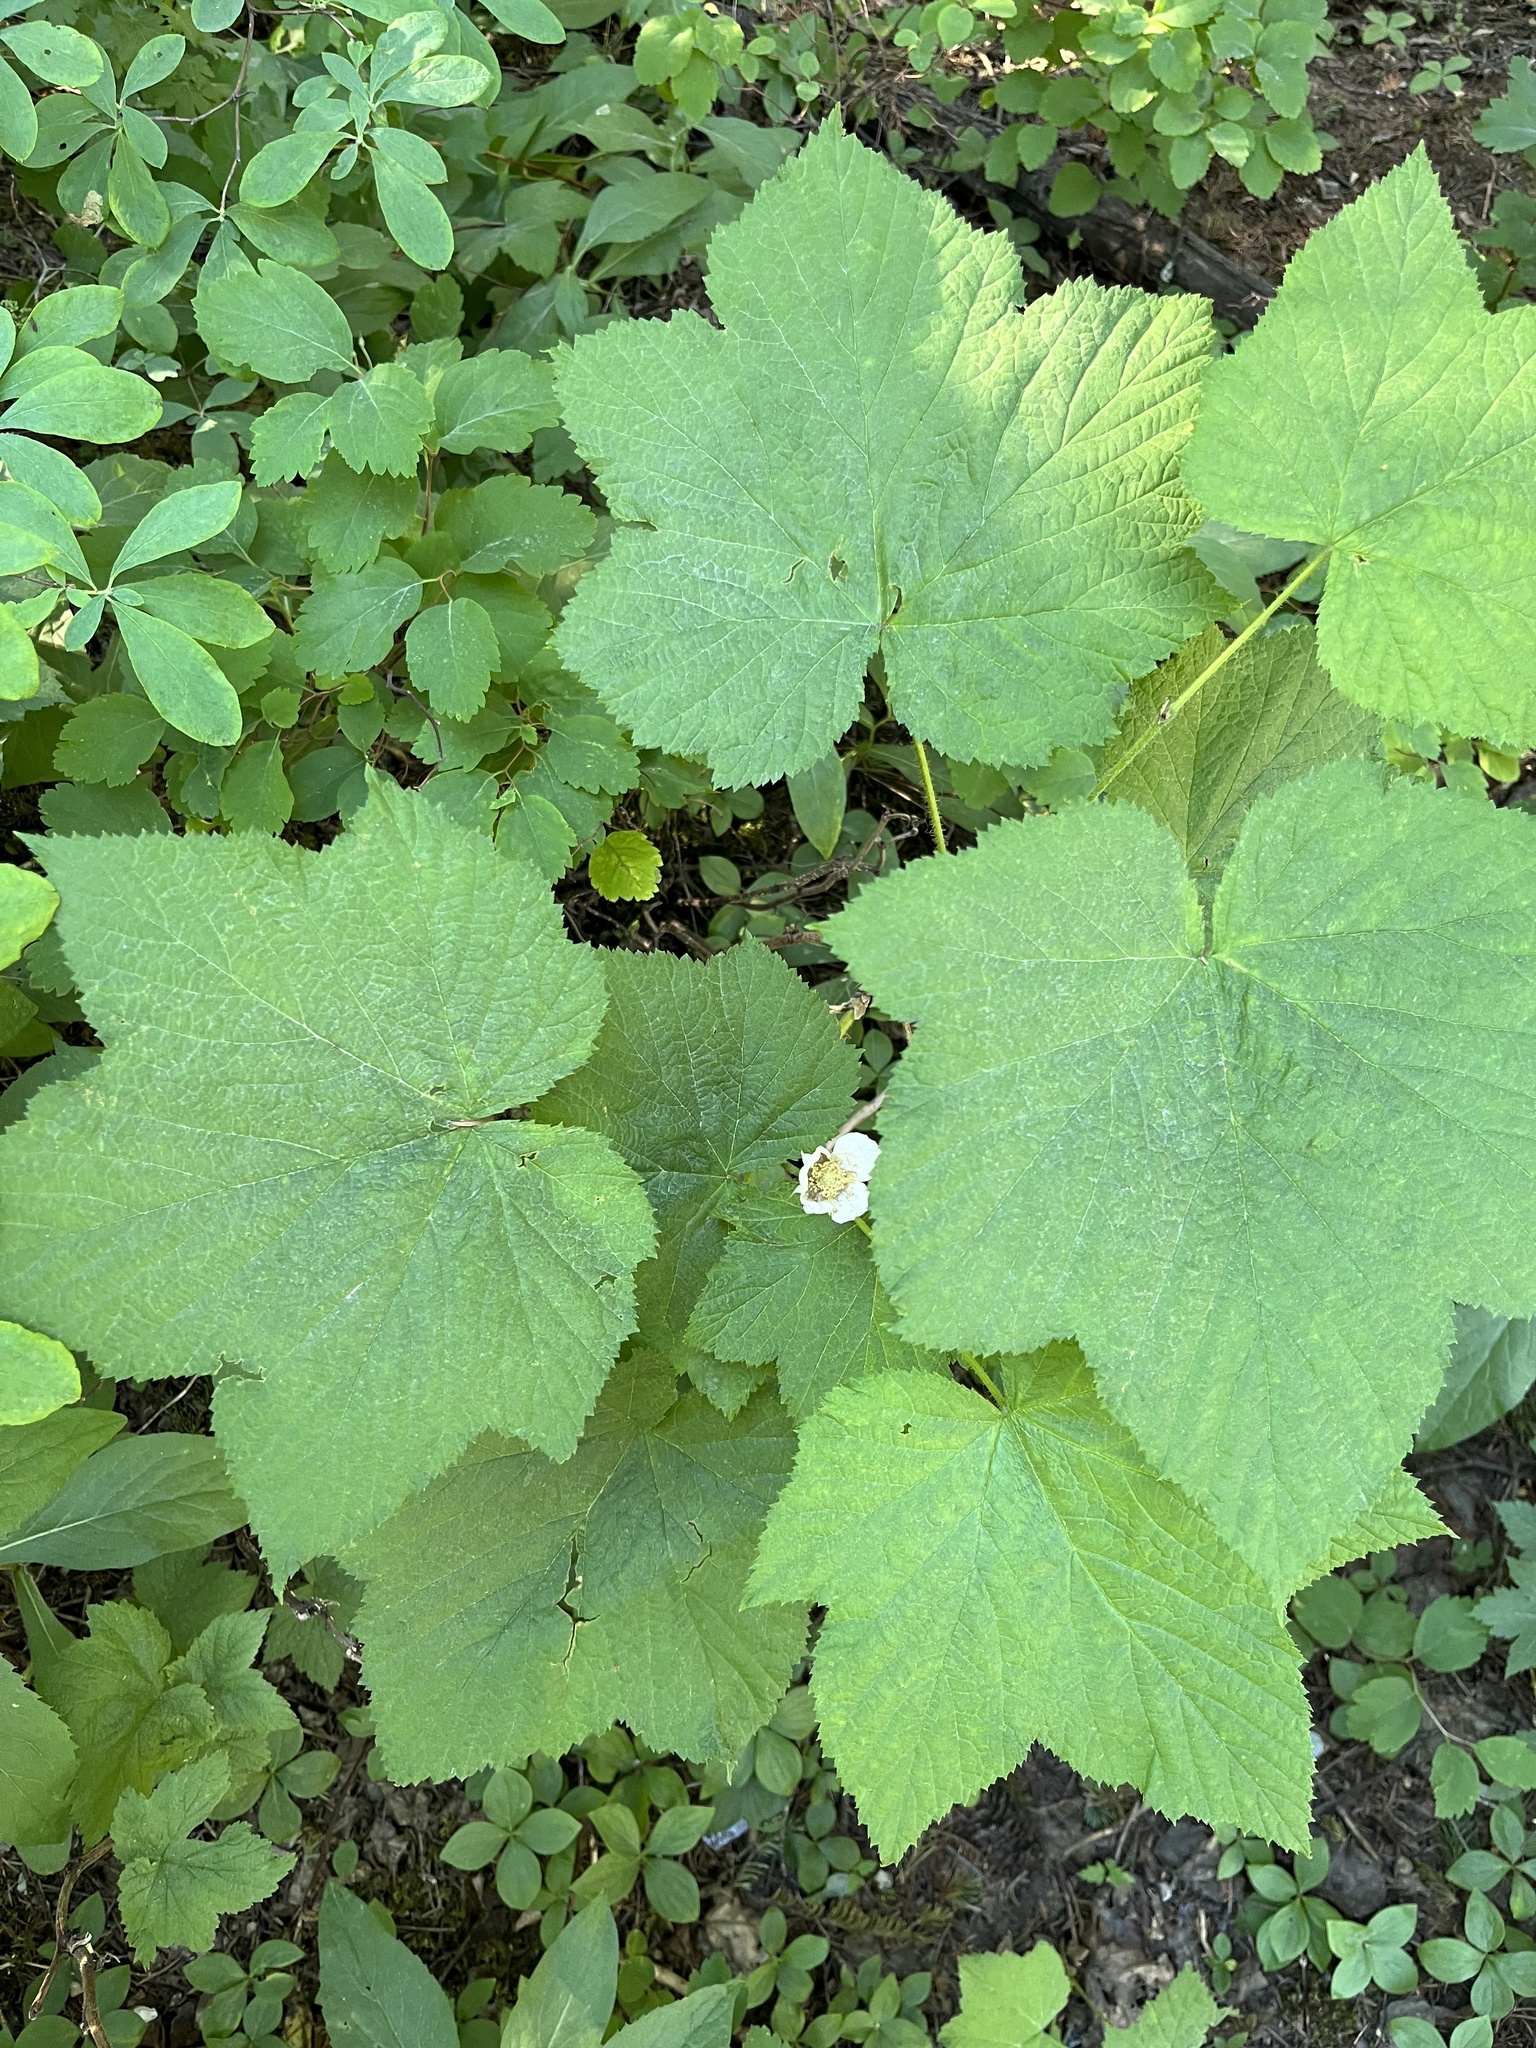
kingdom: Plantae
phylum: Tracheophyta
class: Magnoliopsida
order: Rosales
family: Rosaceae
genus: Rubus
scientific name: Rubus parviflorus
